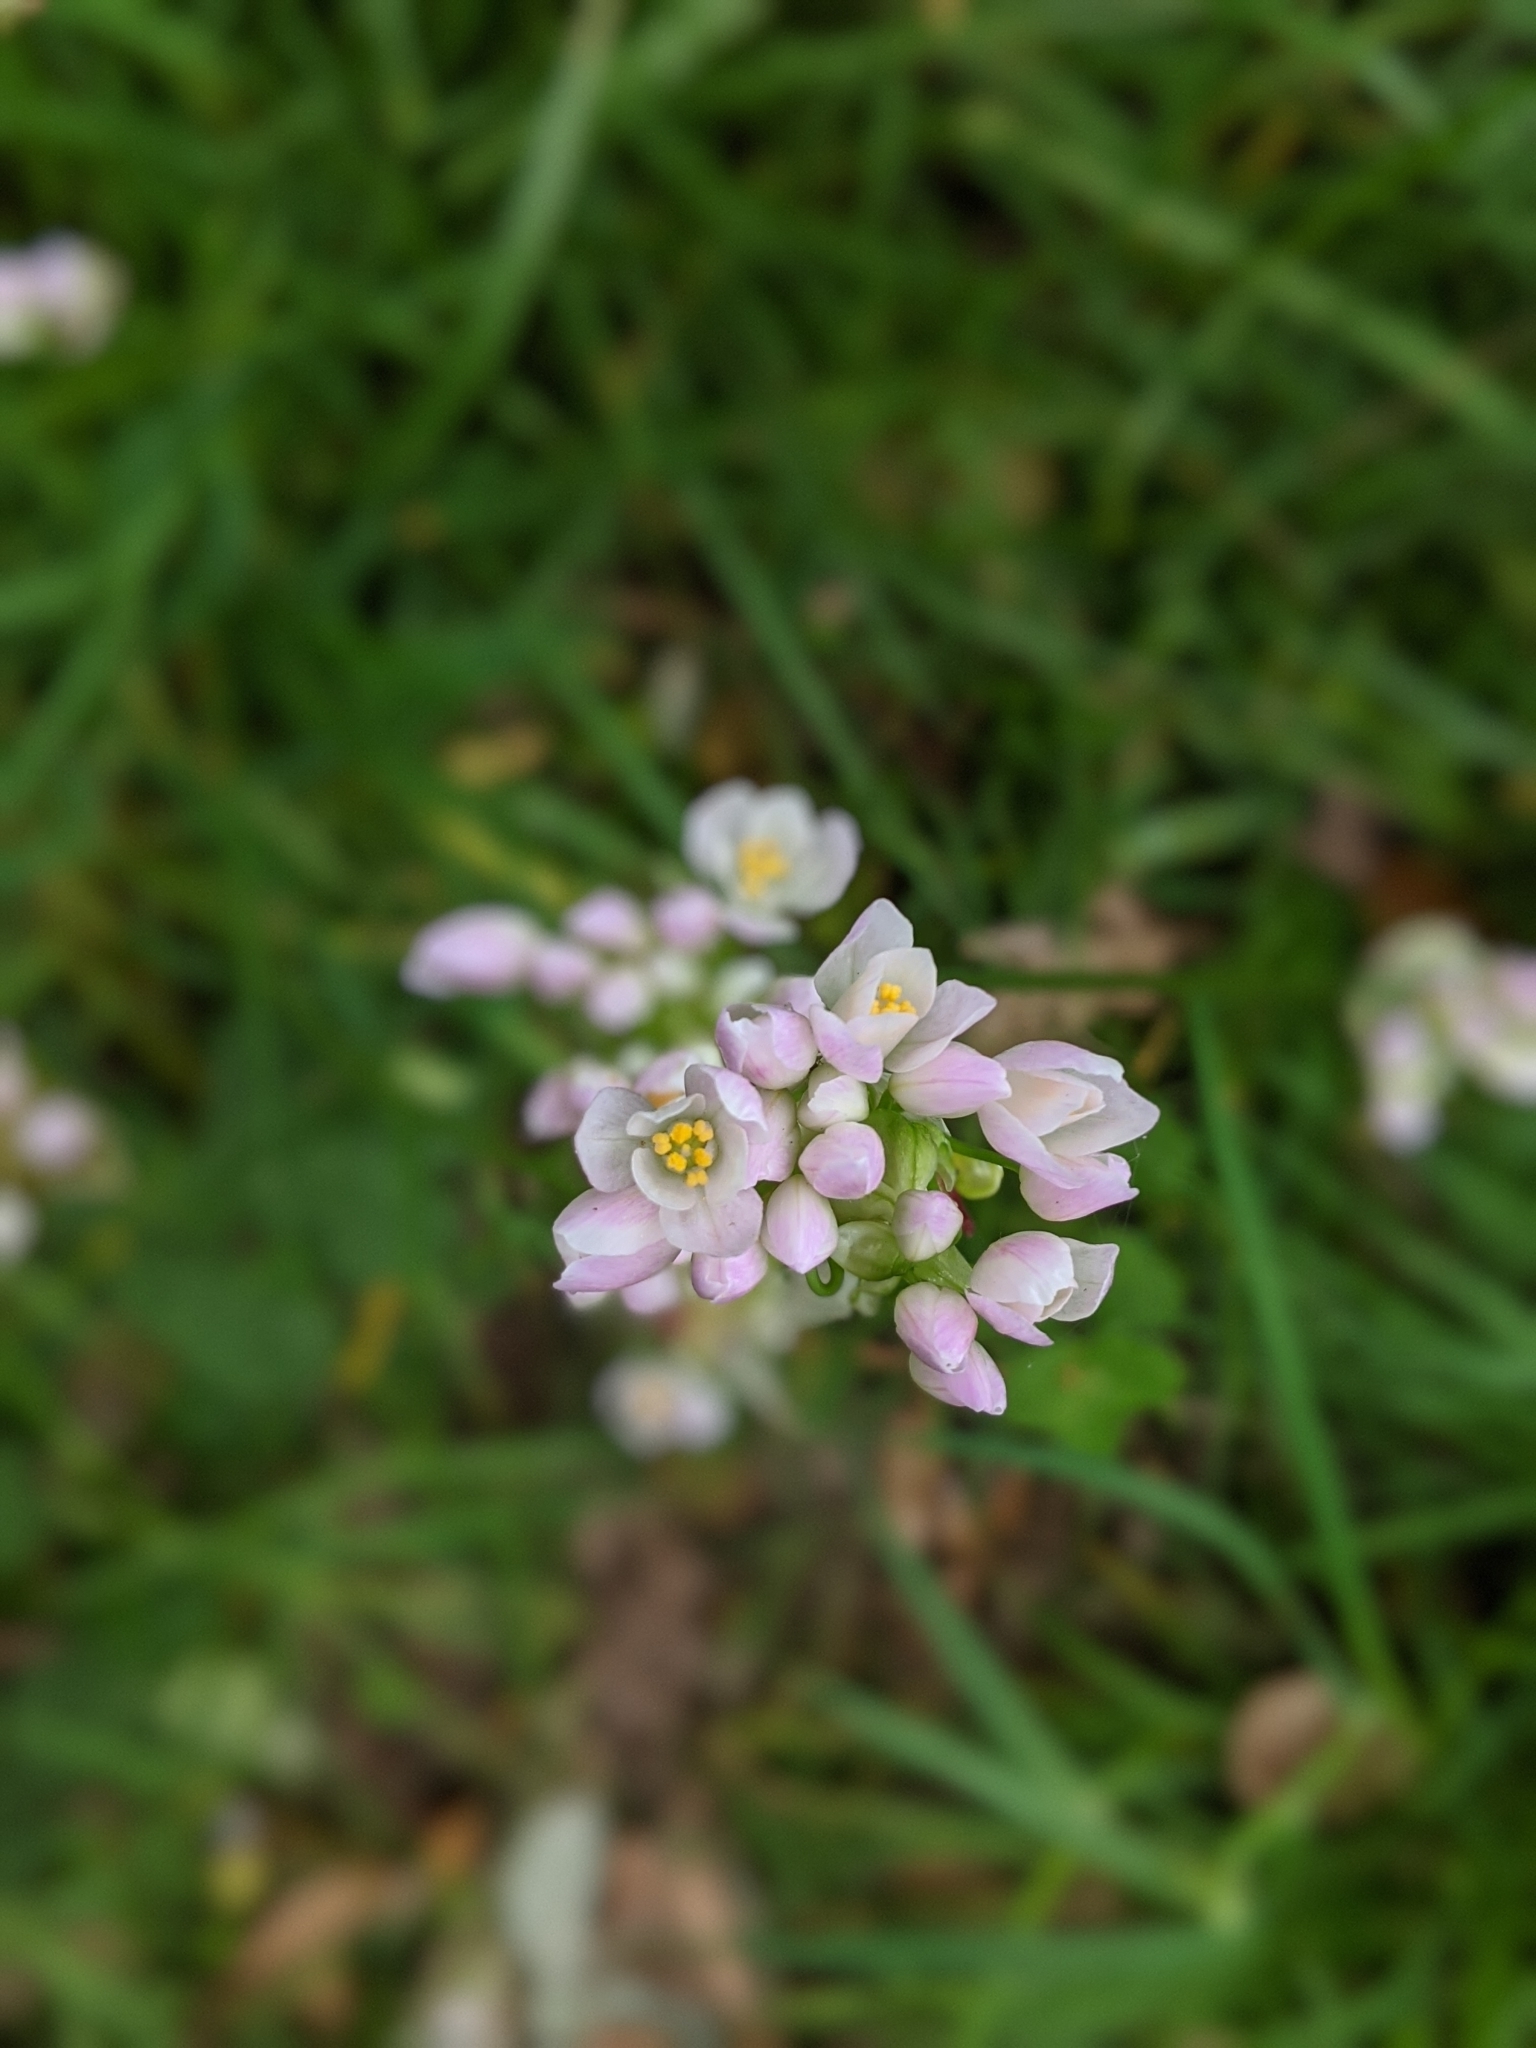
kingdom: Plantae
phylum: Tracheophyta
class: Liliopsida
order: Asparagales
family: Amaryllidaceae
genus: Allium
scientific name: Allium roseum
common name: Rosy garlic
